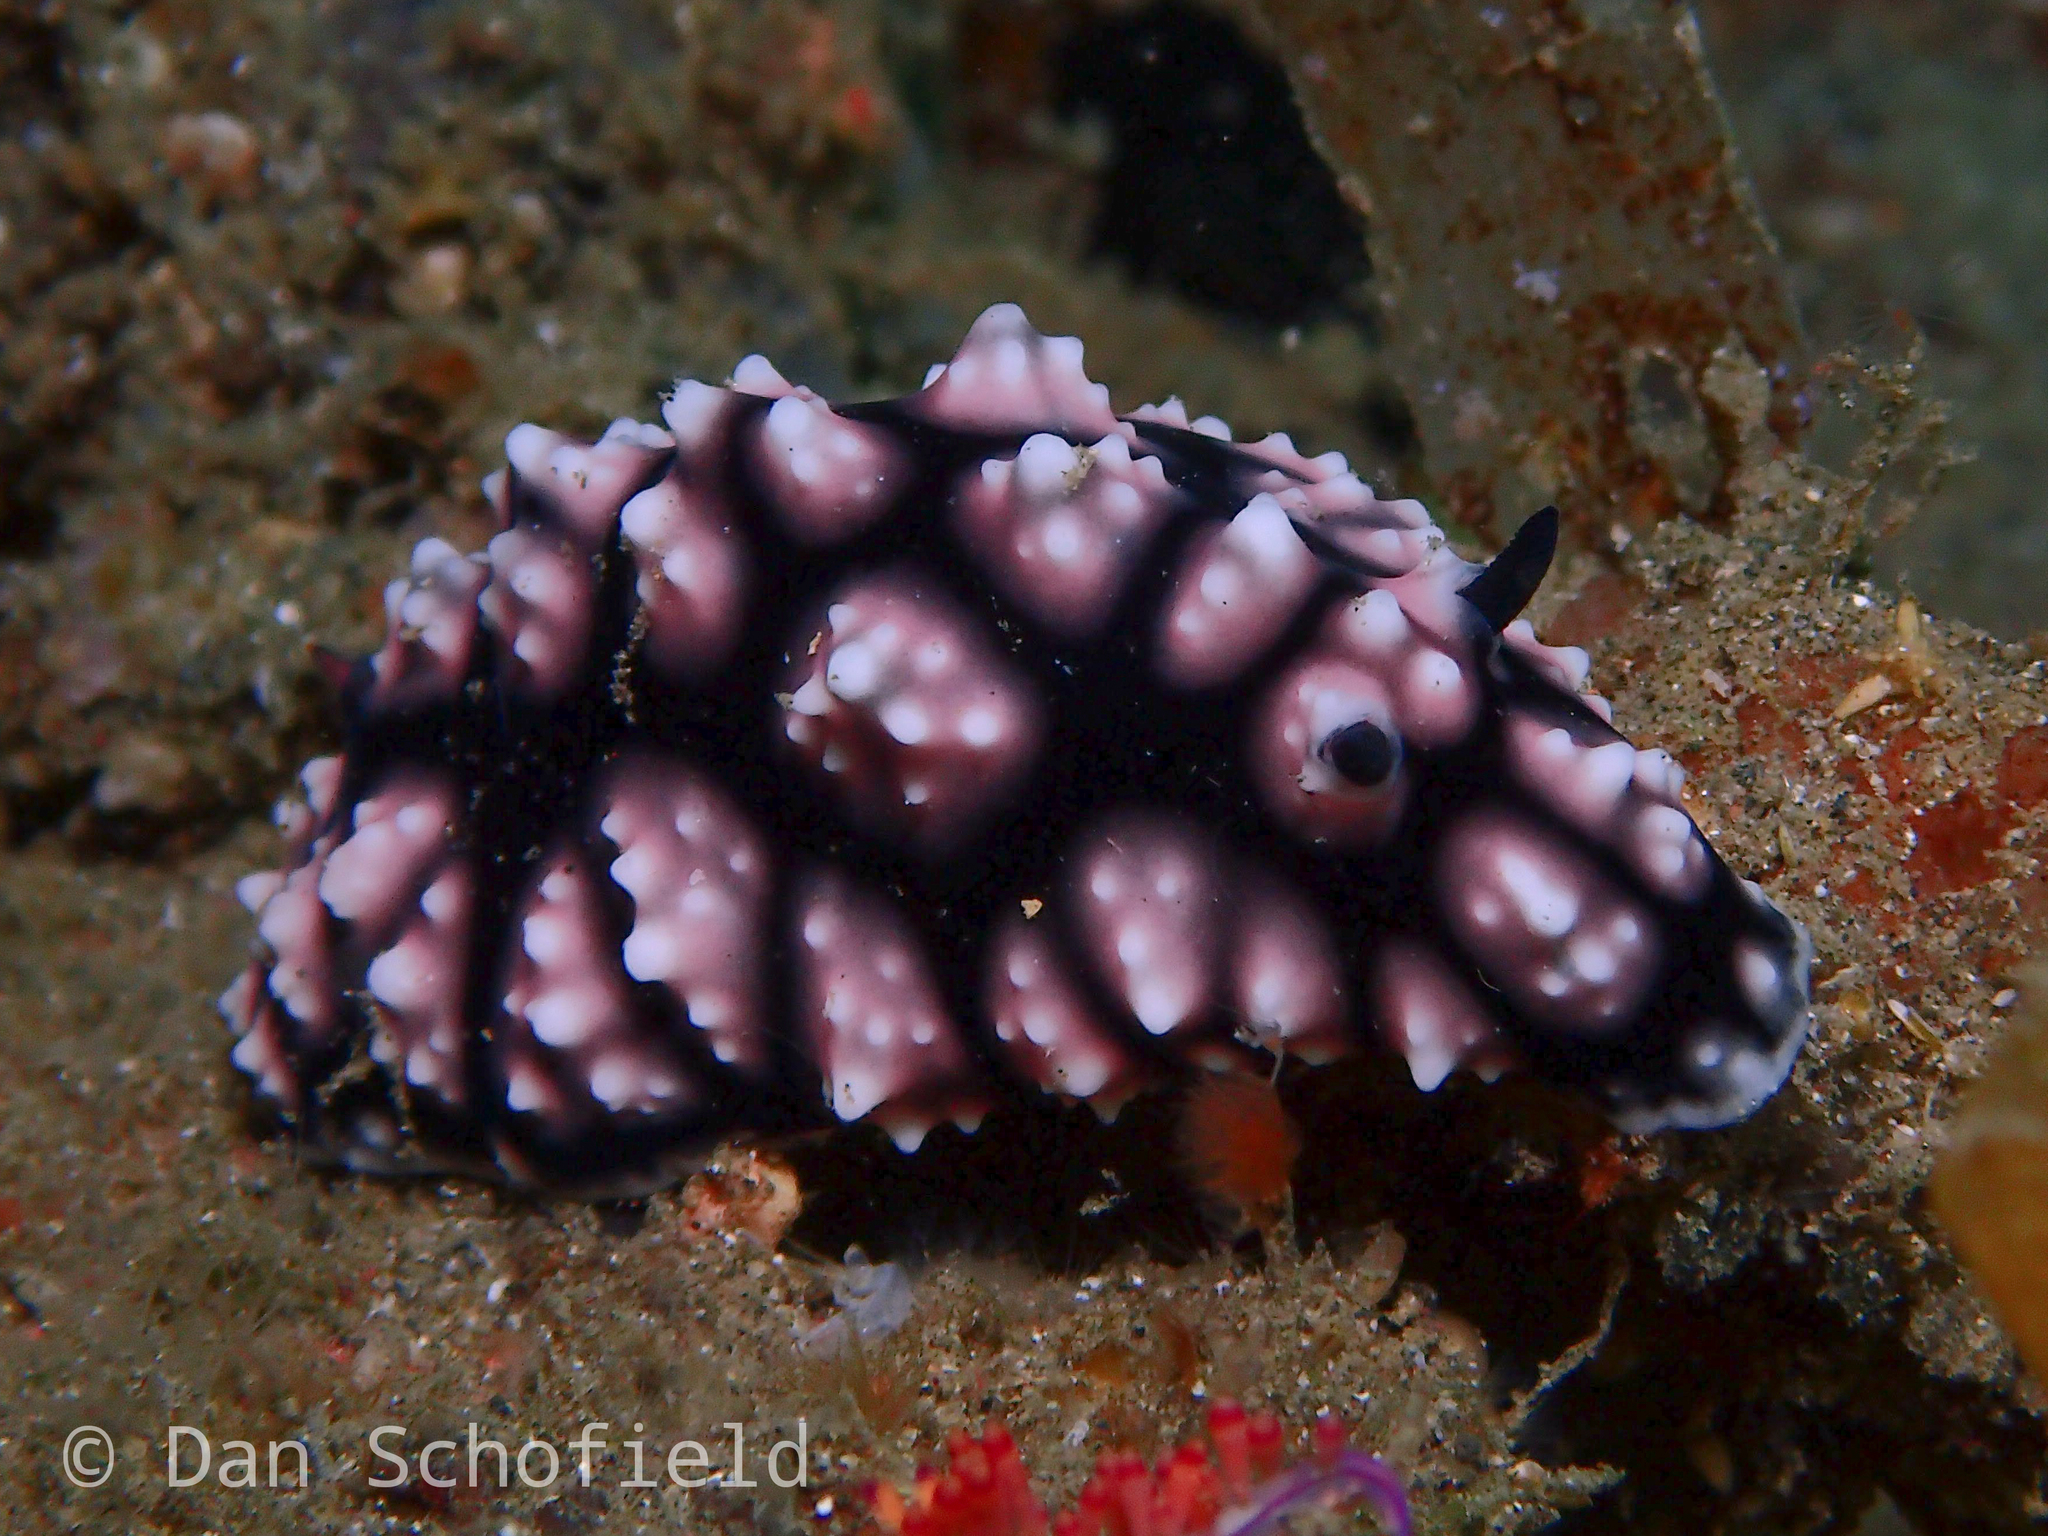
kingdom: Animalia
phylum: Mollusca
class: Gastropoda
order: Nudibranchia
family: Phyllidiidae
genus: Phyllidiella
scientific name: Phyllidiella pustulosa
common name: Pustular phyllidia
